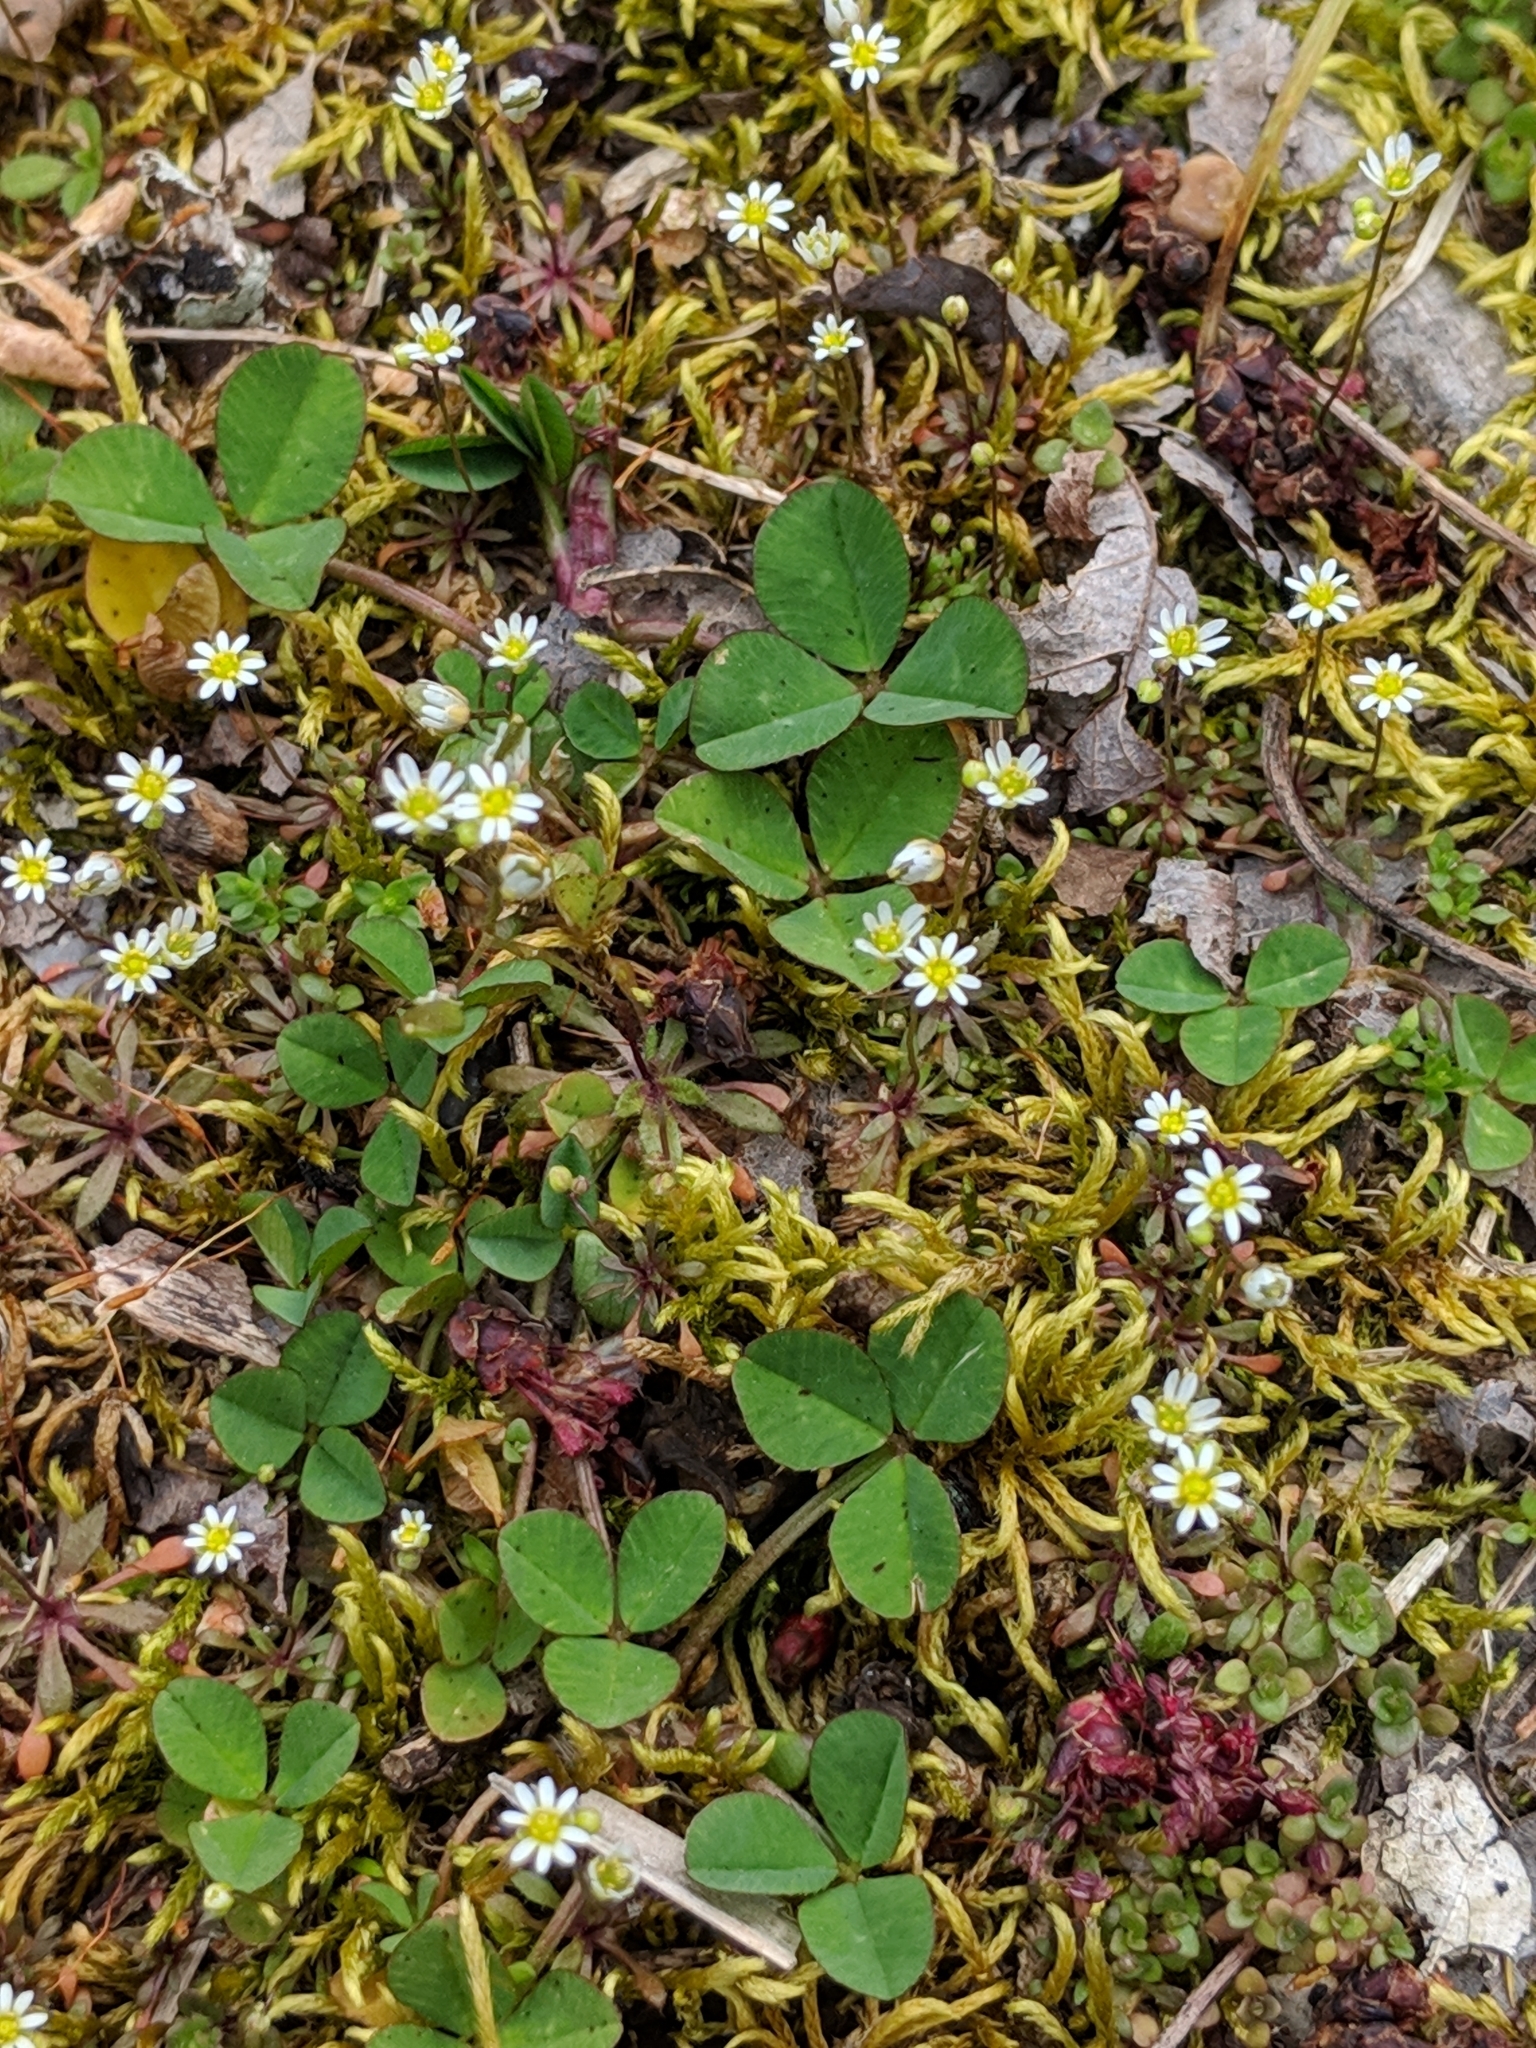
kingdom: Plantae
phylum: Tracheophyta
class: Magnoliopsida
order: Brassicales
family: Brassicaceae
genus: Draba
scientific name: Draba verna
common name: Spring draba
